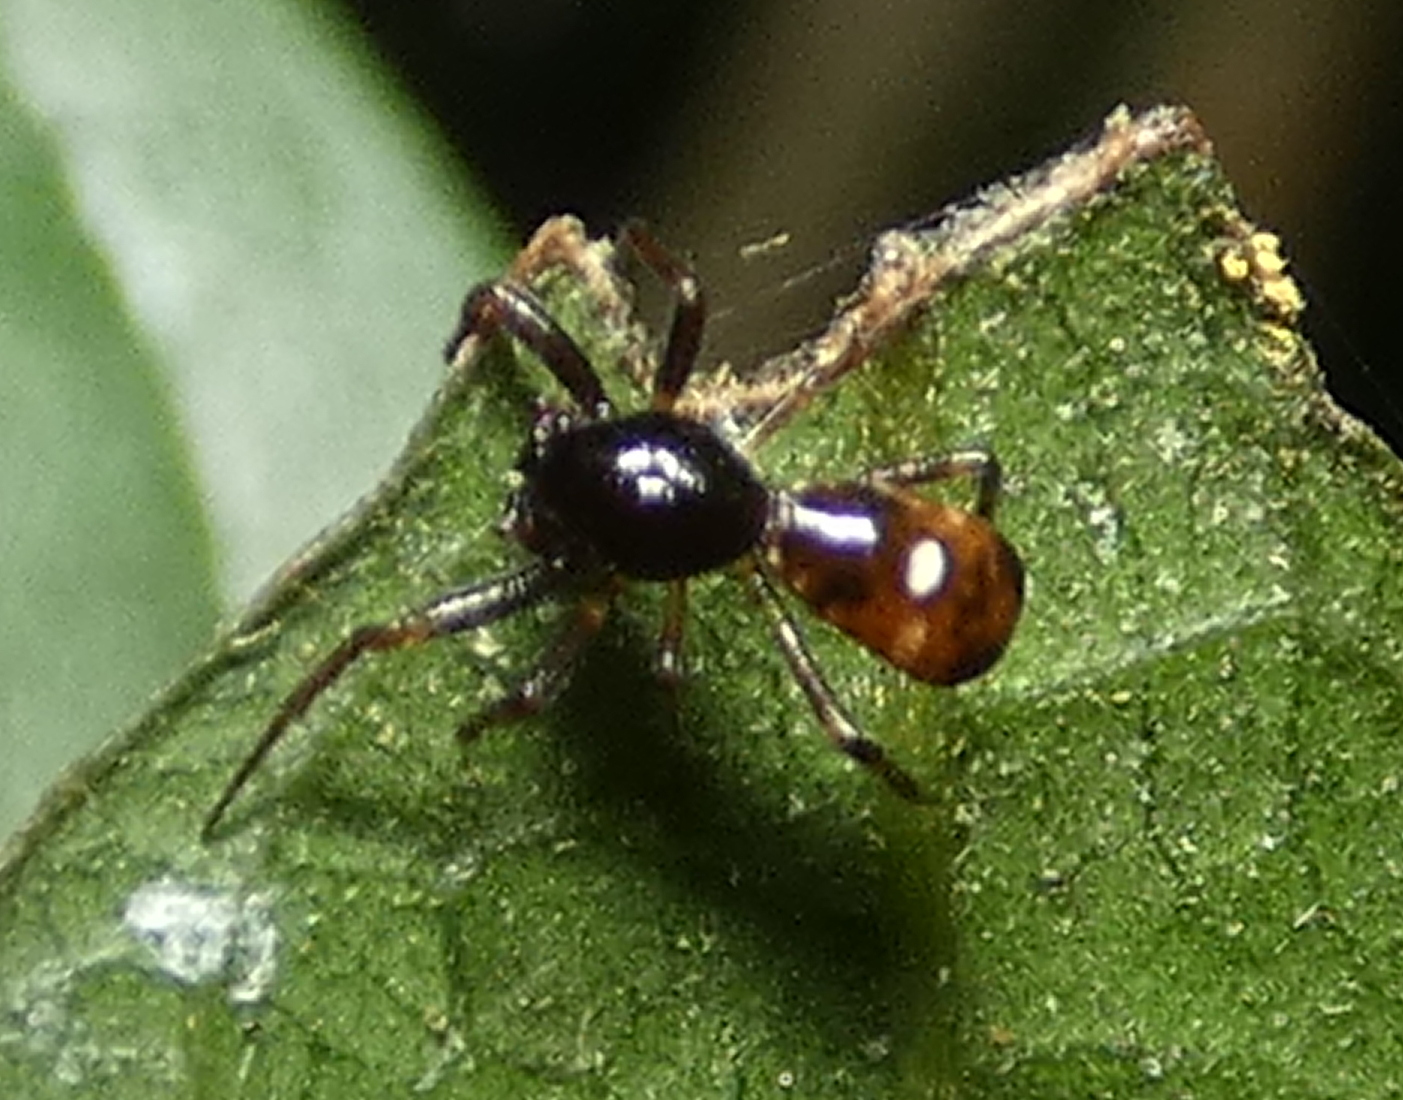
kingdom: Animalia
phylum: Arthropoda
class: Arachnida
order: Araneae
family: Araneidae
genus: Micrathena
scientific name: Micrathena evansi
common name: Orb weavers
